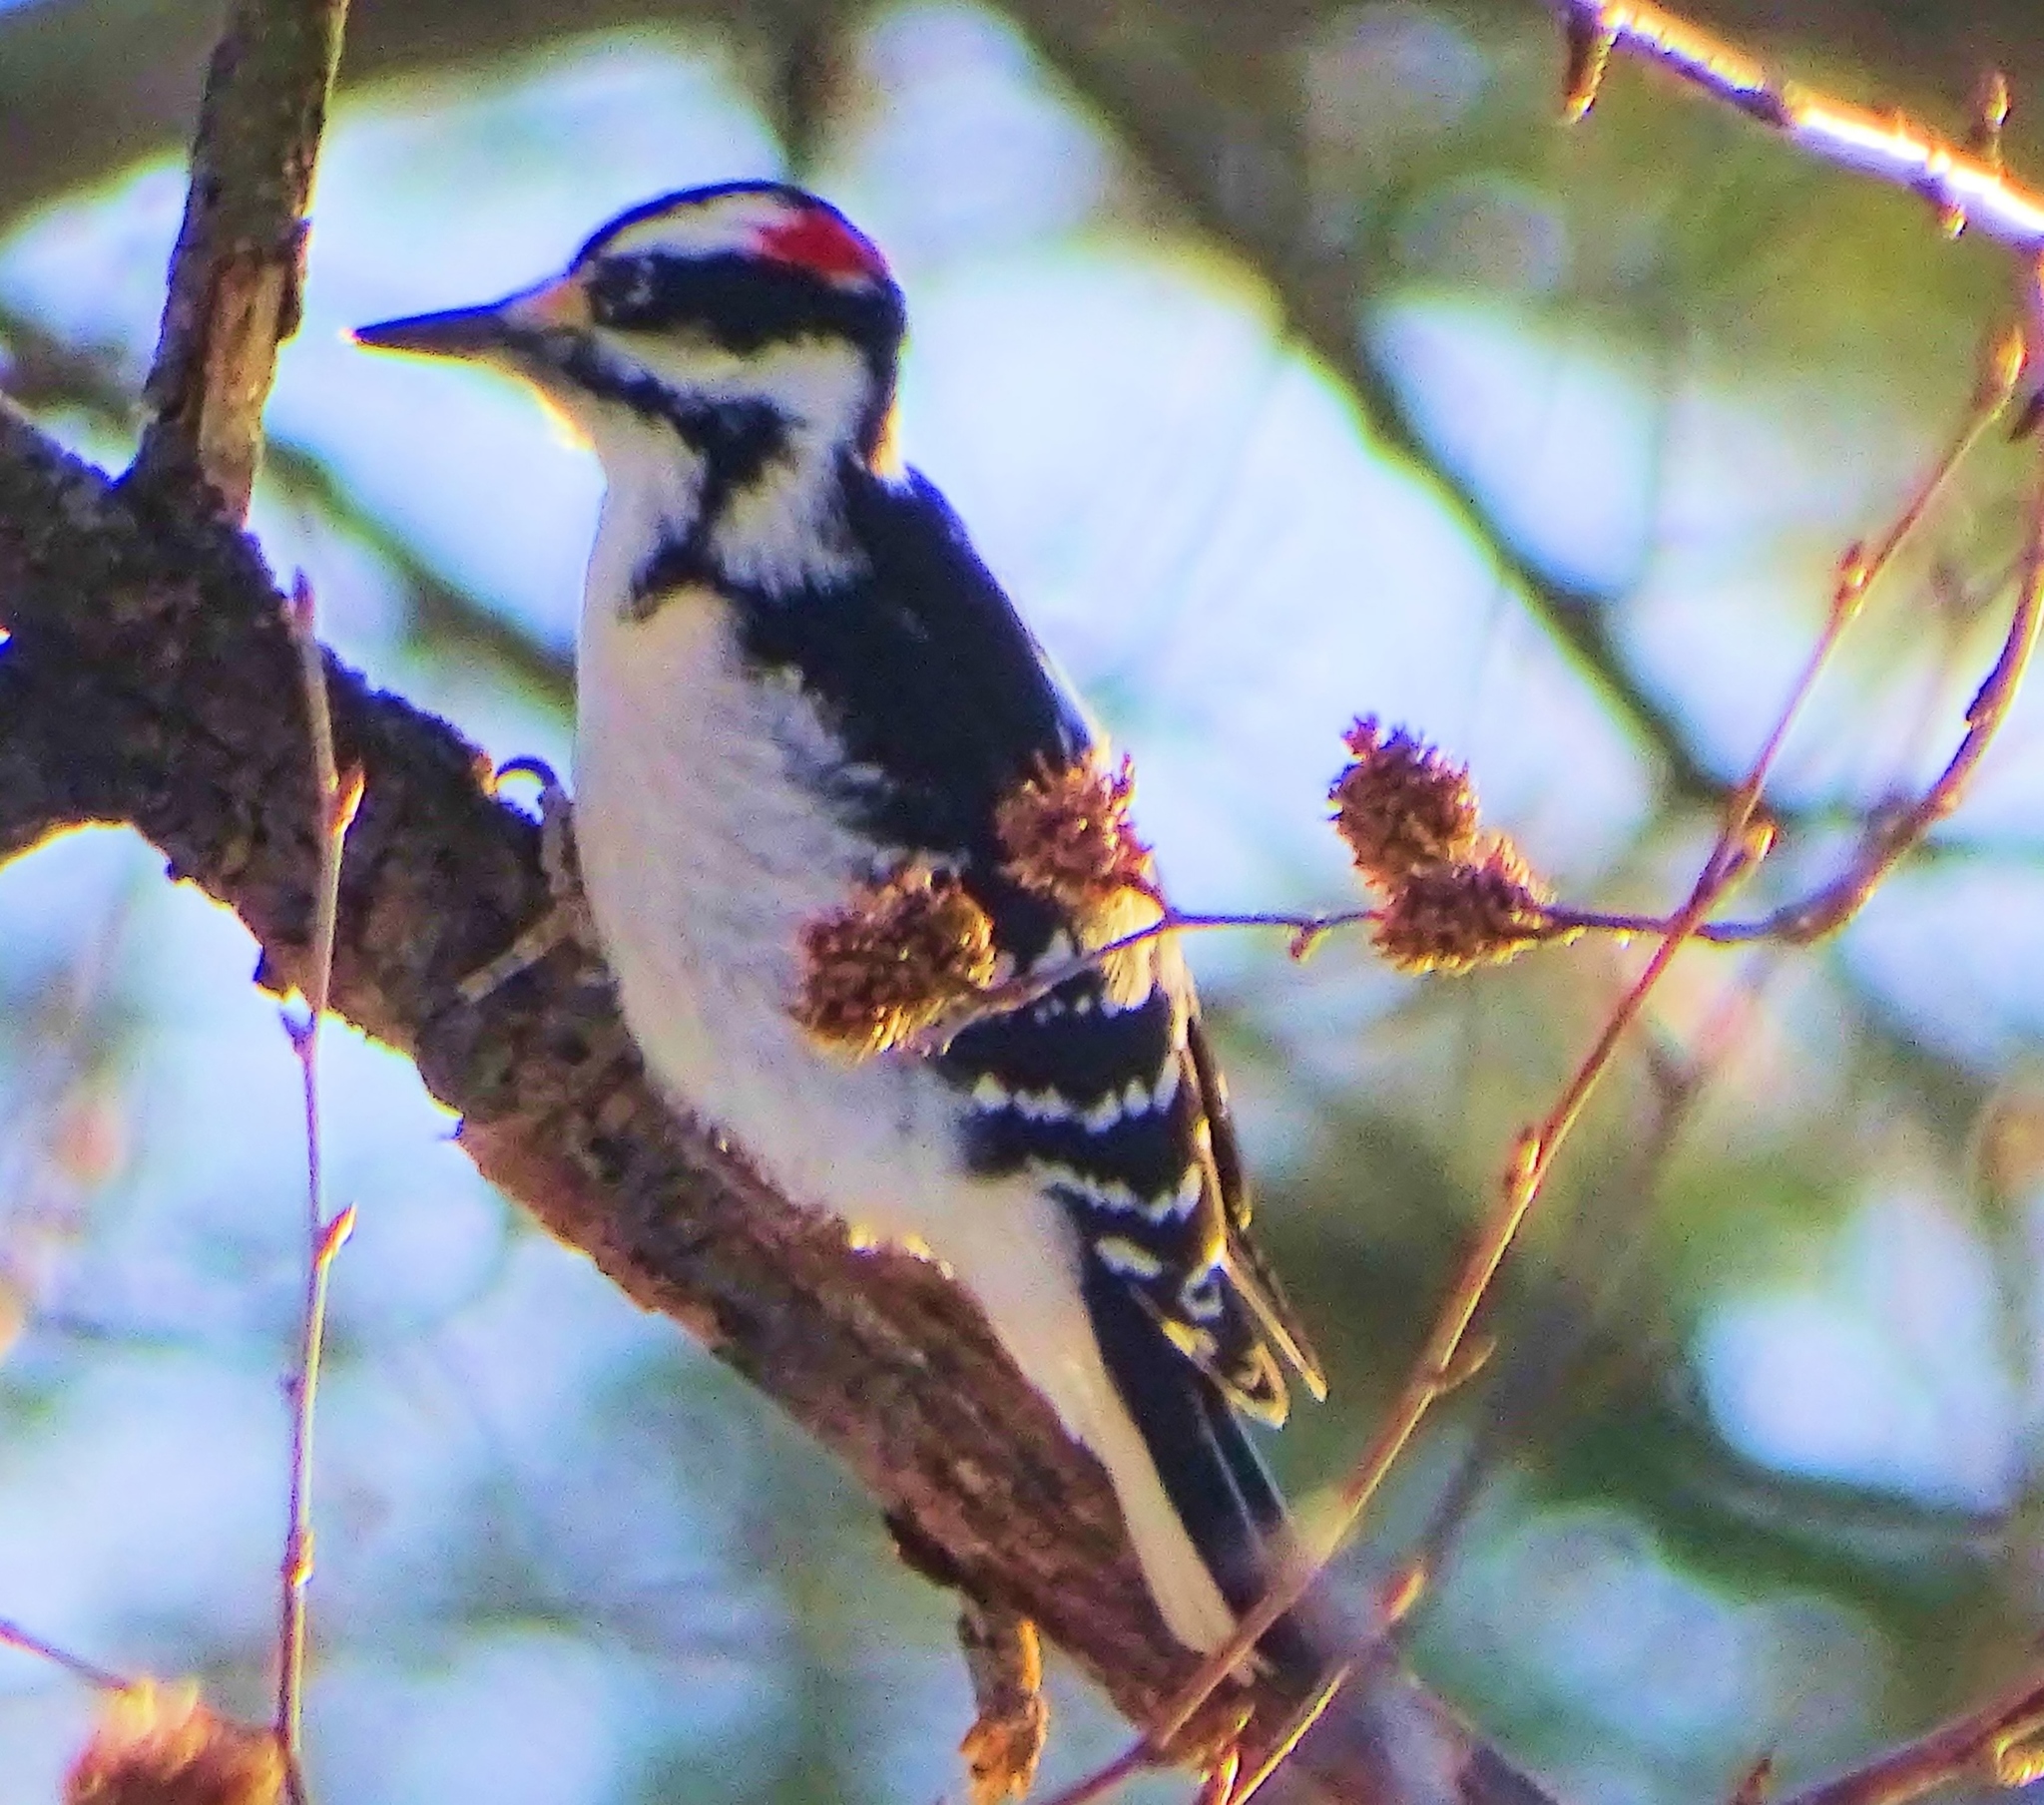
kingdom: Animalia
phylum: Chordata
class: Aves
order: Piciformes
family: Picidae
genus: Leuconotopicus
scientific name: Leuconotopicus villosus
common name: Hairy woodpecker
